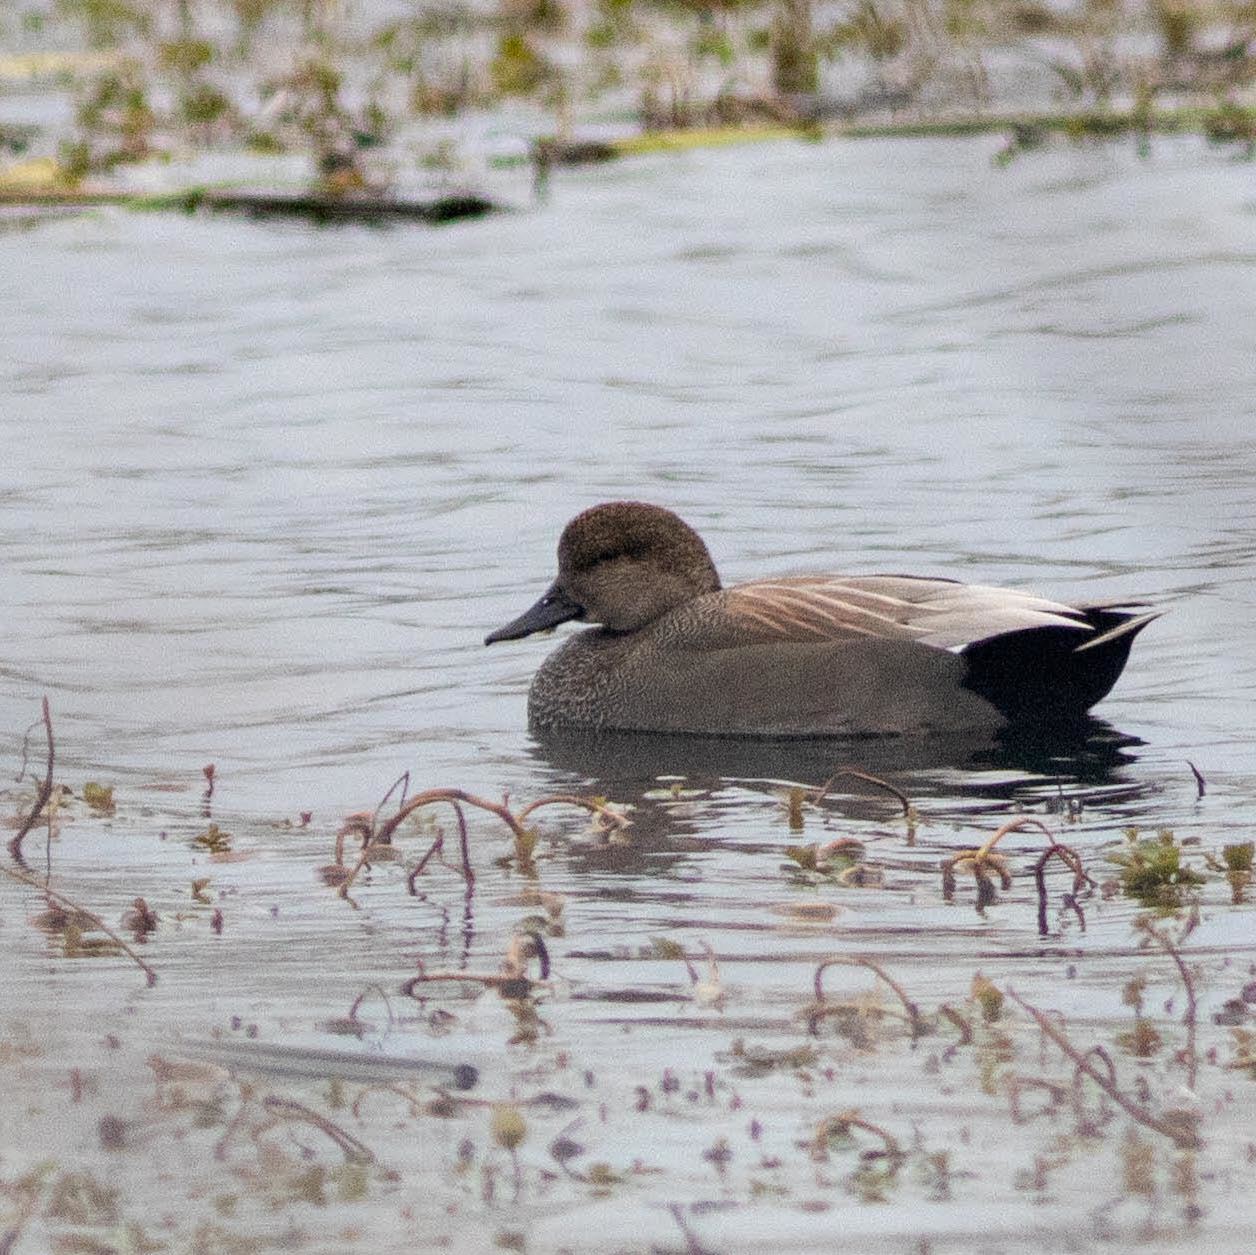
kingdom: Animalia
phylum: Chordata
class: Aves
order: Anseriformes
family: Anatidae
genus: Mareca
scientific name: Mareca strepera
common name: Gadwall
